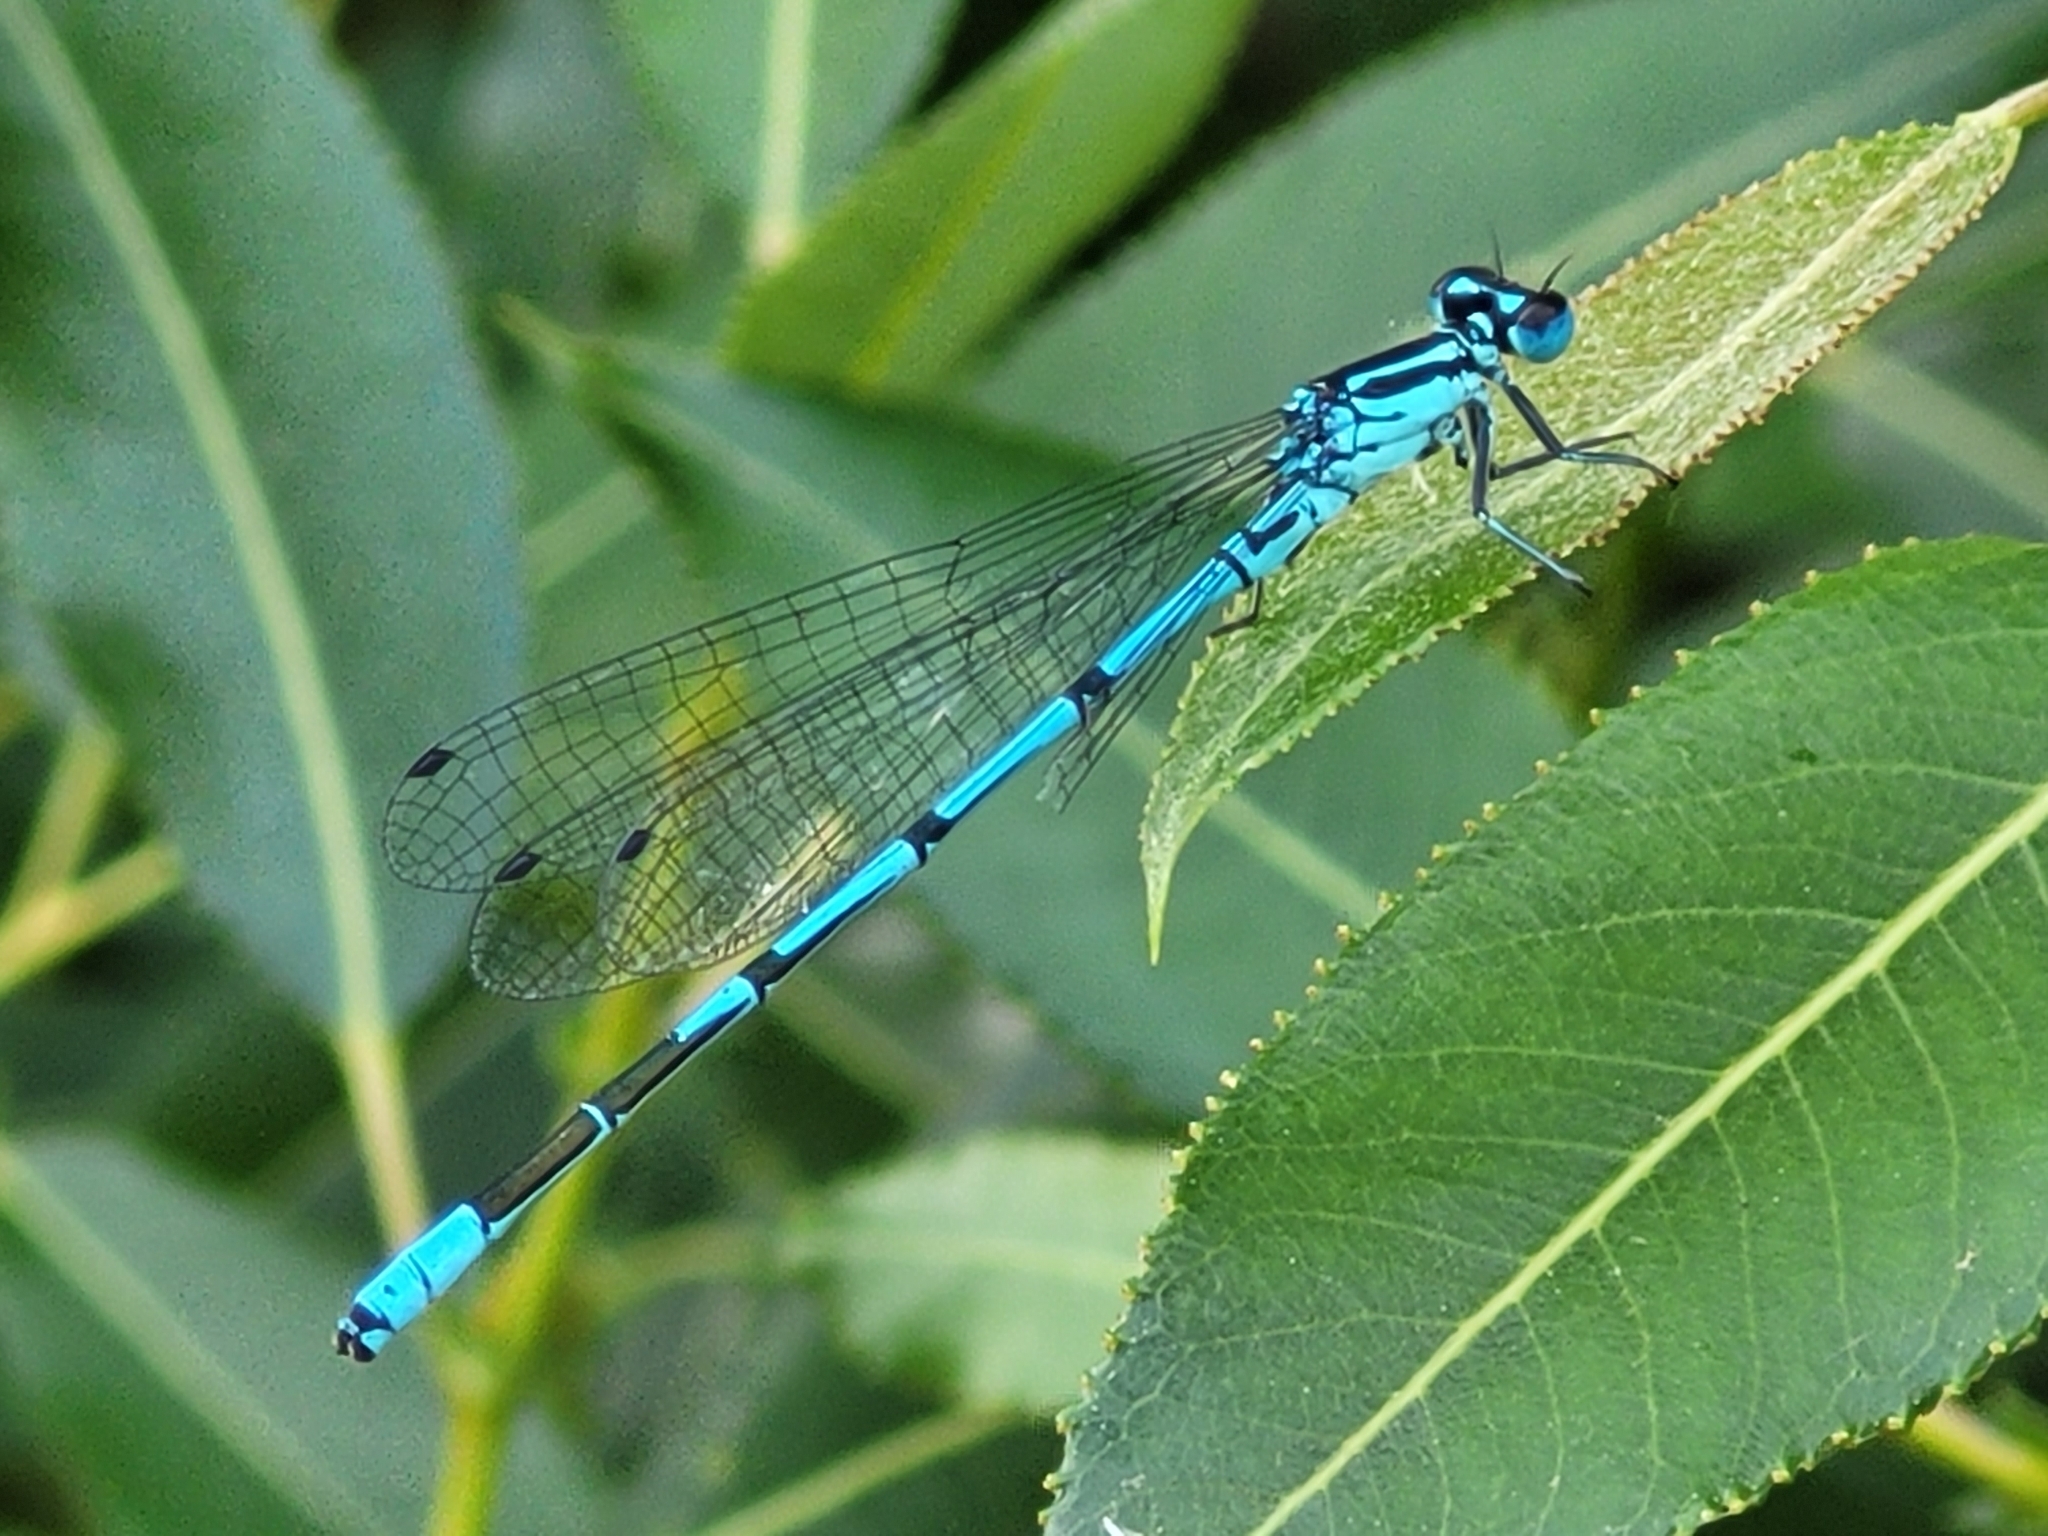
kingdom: Animalia
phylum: Arthropoda
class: Insecta
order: Odonata
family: Coenagrionidae
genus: Coenagrion
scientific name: Coenagrion puella
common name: Azure damselfly
